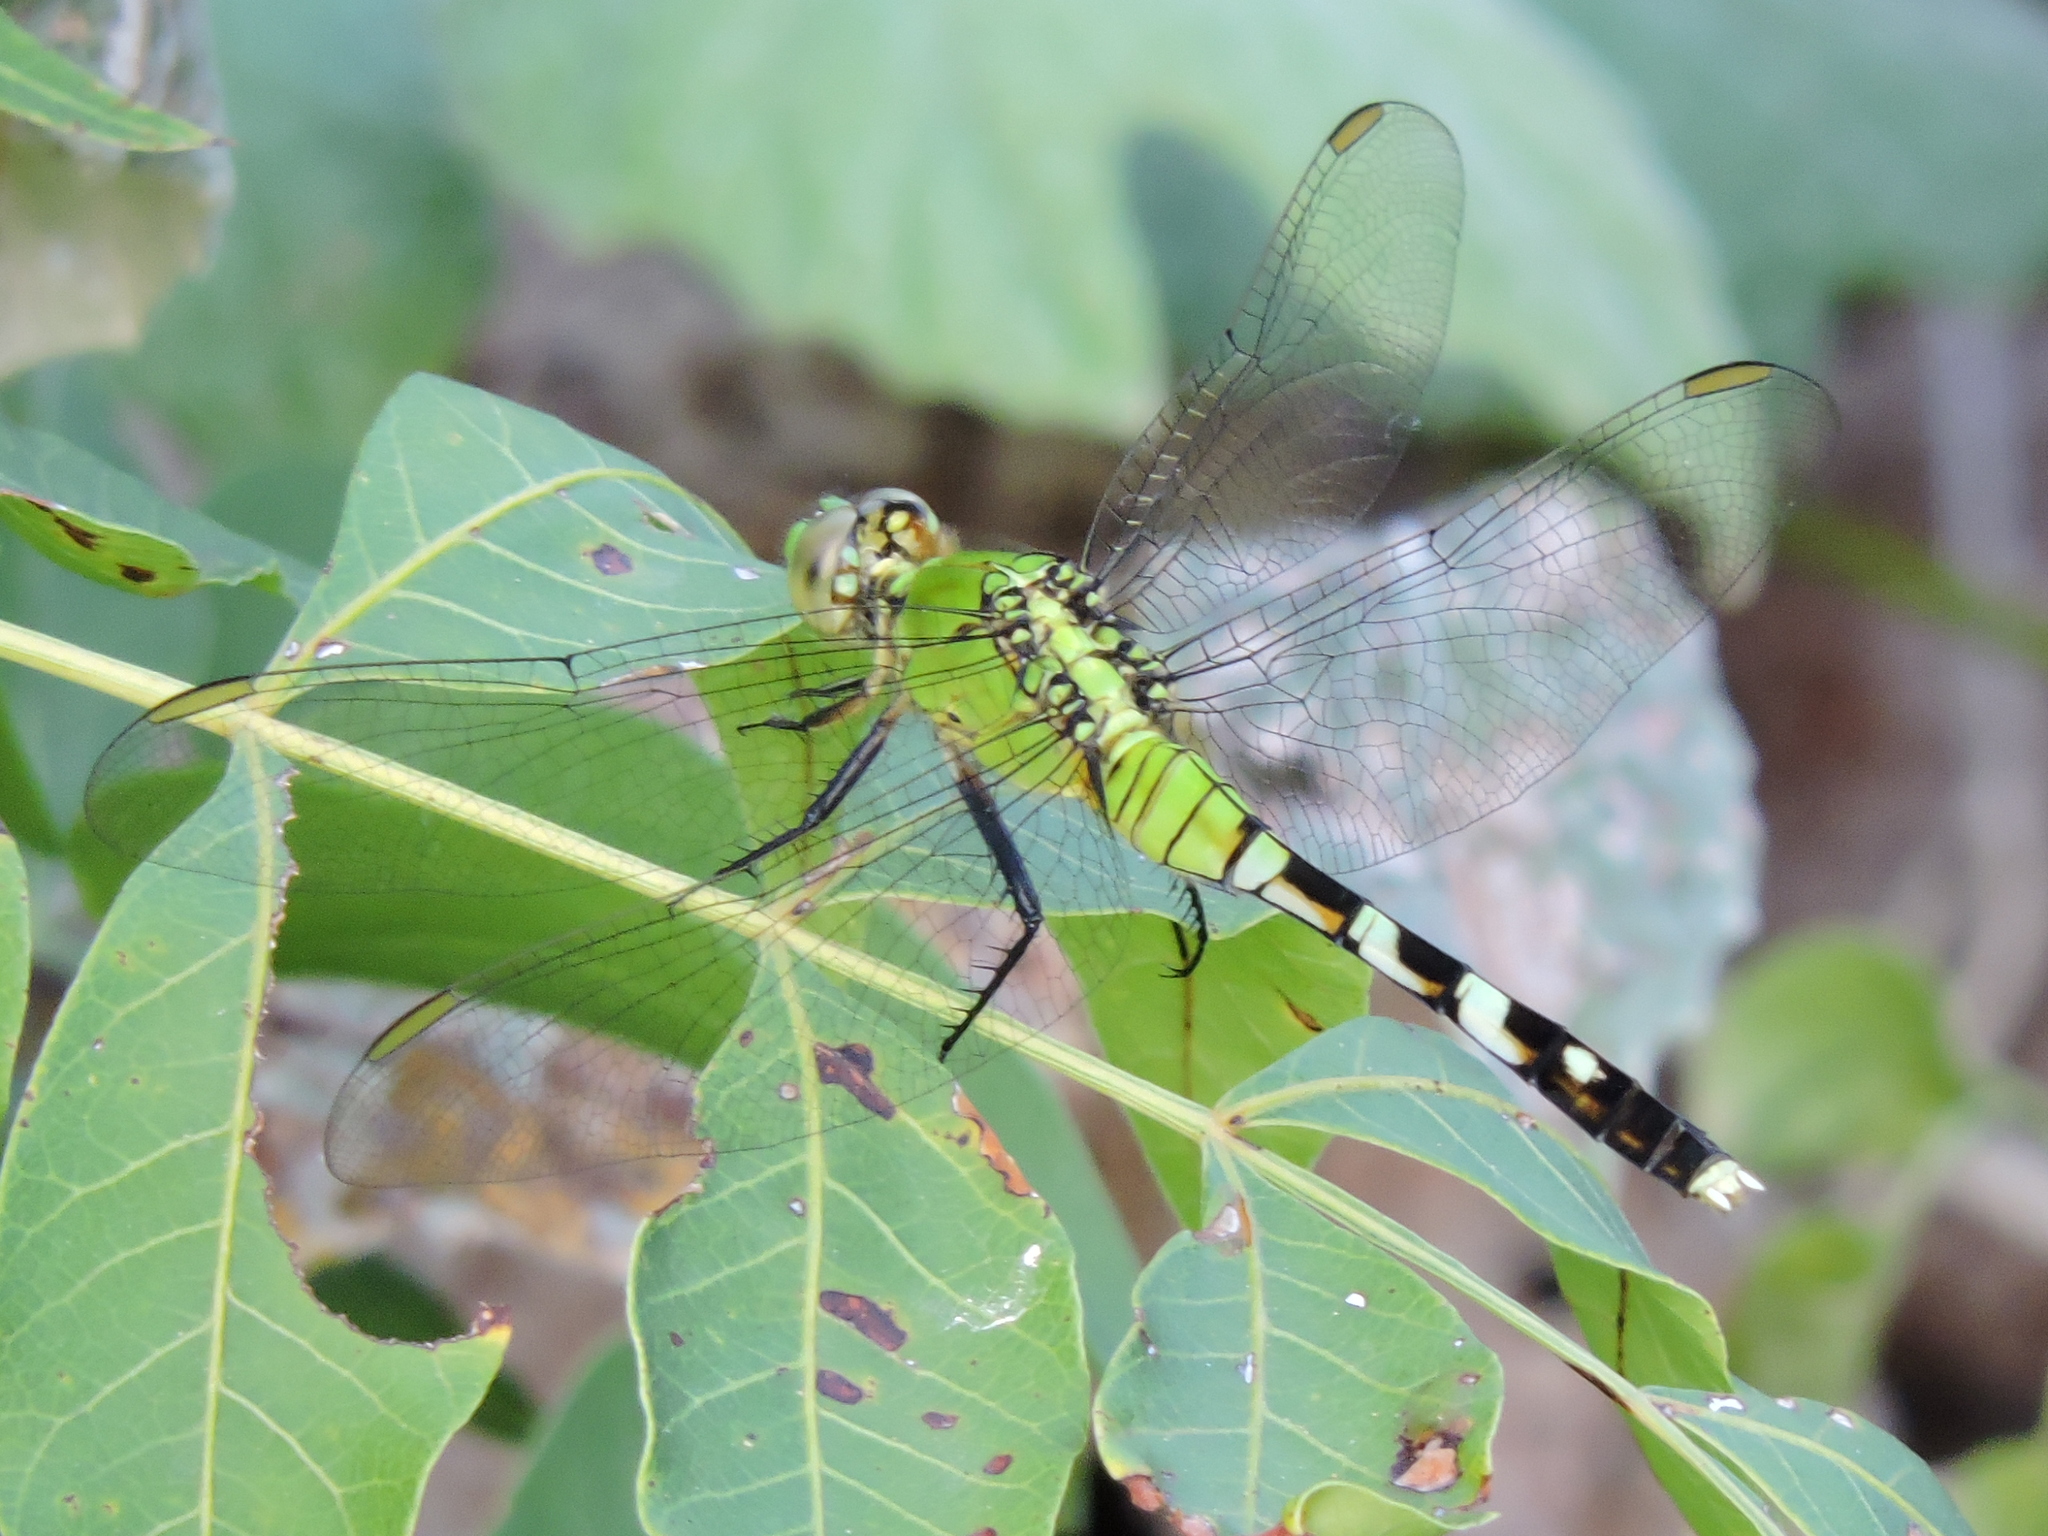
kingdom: Animalia
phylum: Arthropoda
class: Insecta
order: Odonata
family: Libellulidae
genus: Erythemis
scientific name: Erythemis simplicicollis
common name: Eastern pondhawk
